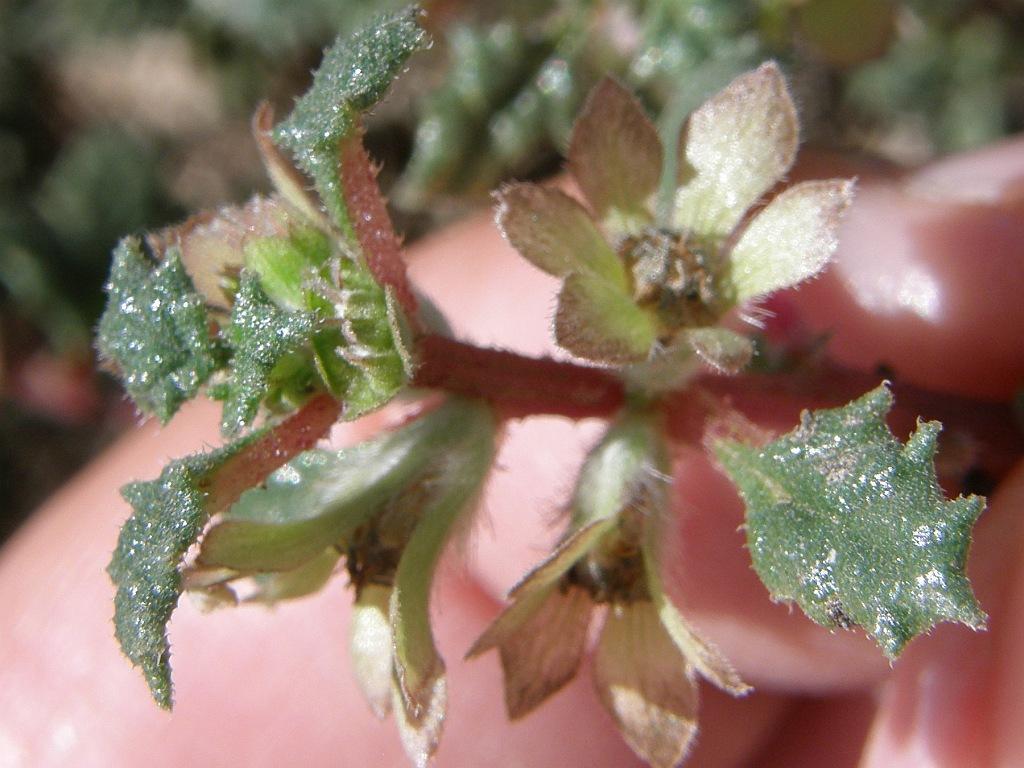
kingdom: Plantae
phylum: Tracheophyta
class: Magnoliopsida
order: Rosales
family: Urticaceae
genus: Forsskaolea
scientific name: Forsskaolea candida
